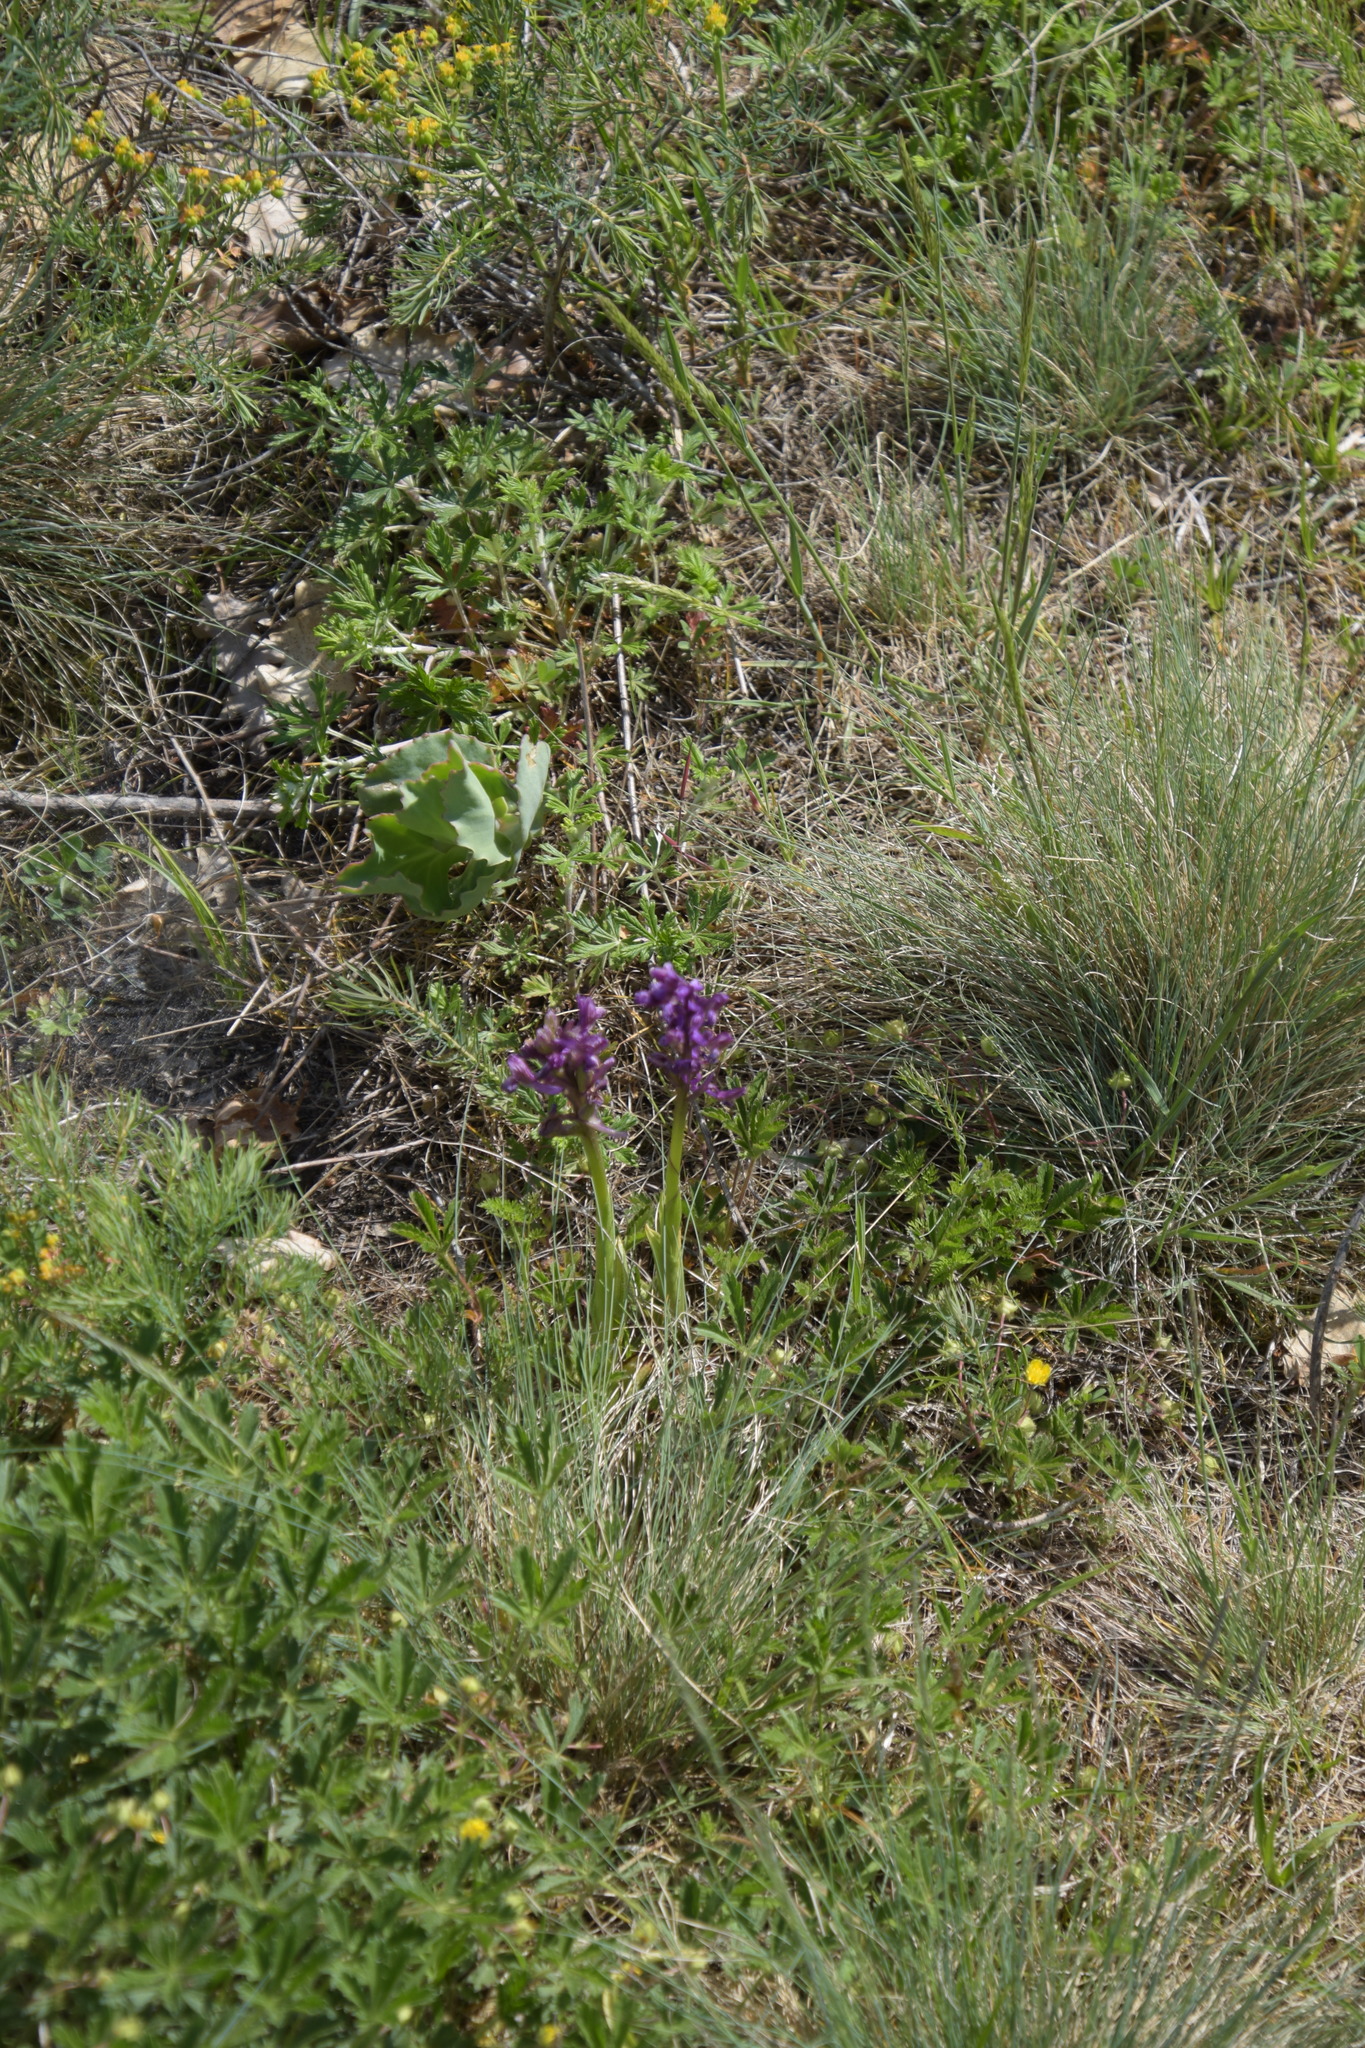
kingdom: Plantae
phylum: Tracheophyta
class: Liliopsida
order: Asparagales
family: Orchidaceae
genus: Anacamptis
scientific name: Anacamptis morio
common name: Green-winged orchid
